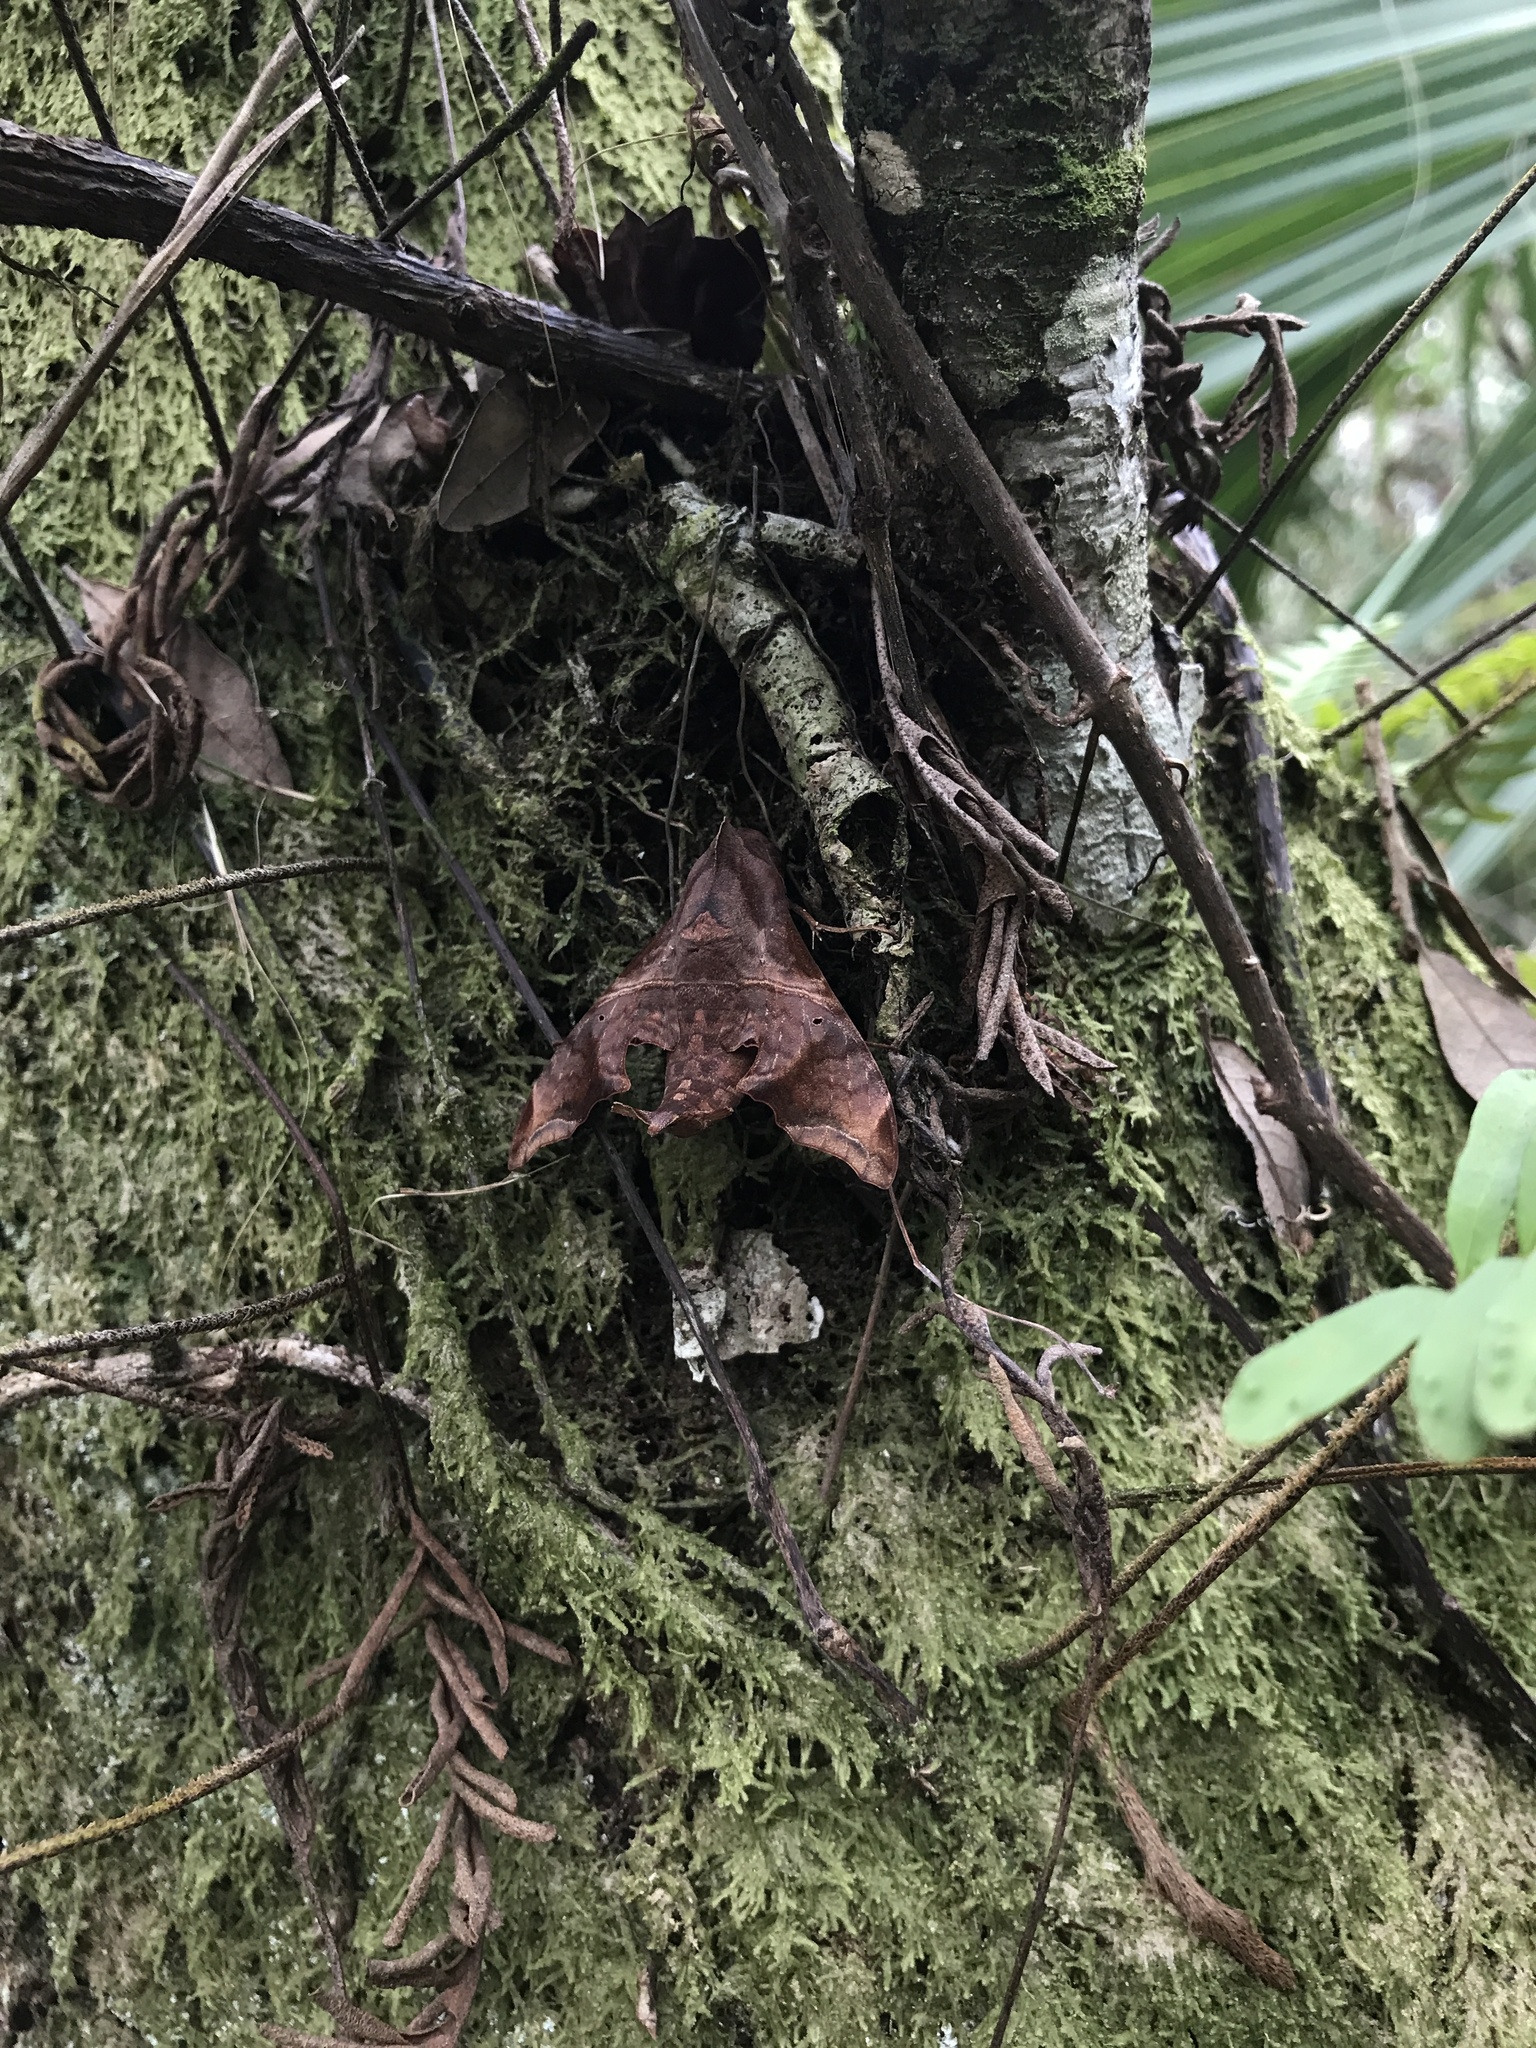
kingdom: Animalia
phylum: Arthropoda
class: Insecta
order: Lepidoptera
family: Sphingidae
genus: Enyo
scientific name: Enyo lugubris
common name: Mournful sphinx
